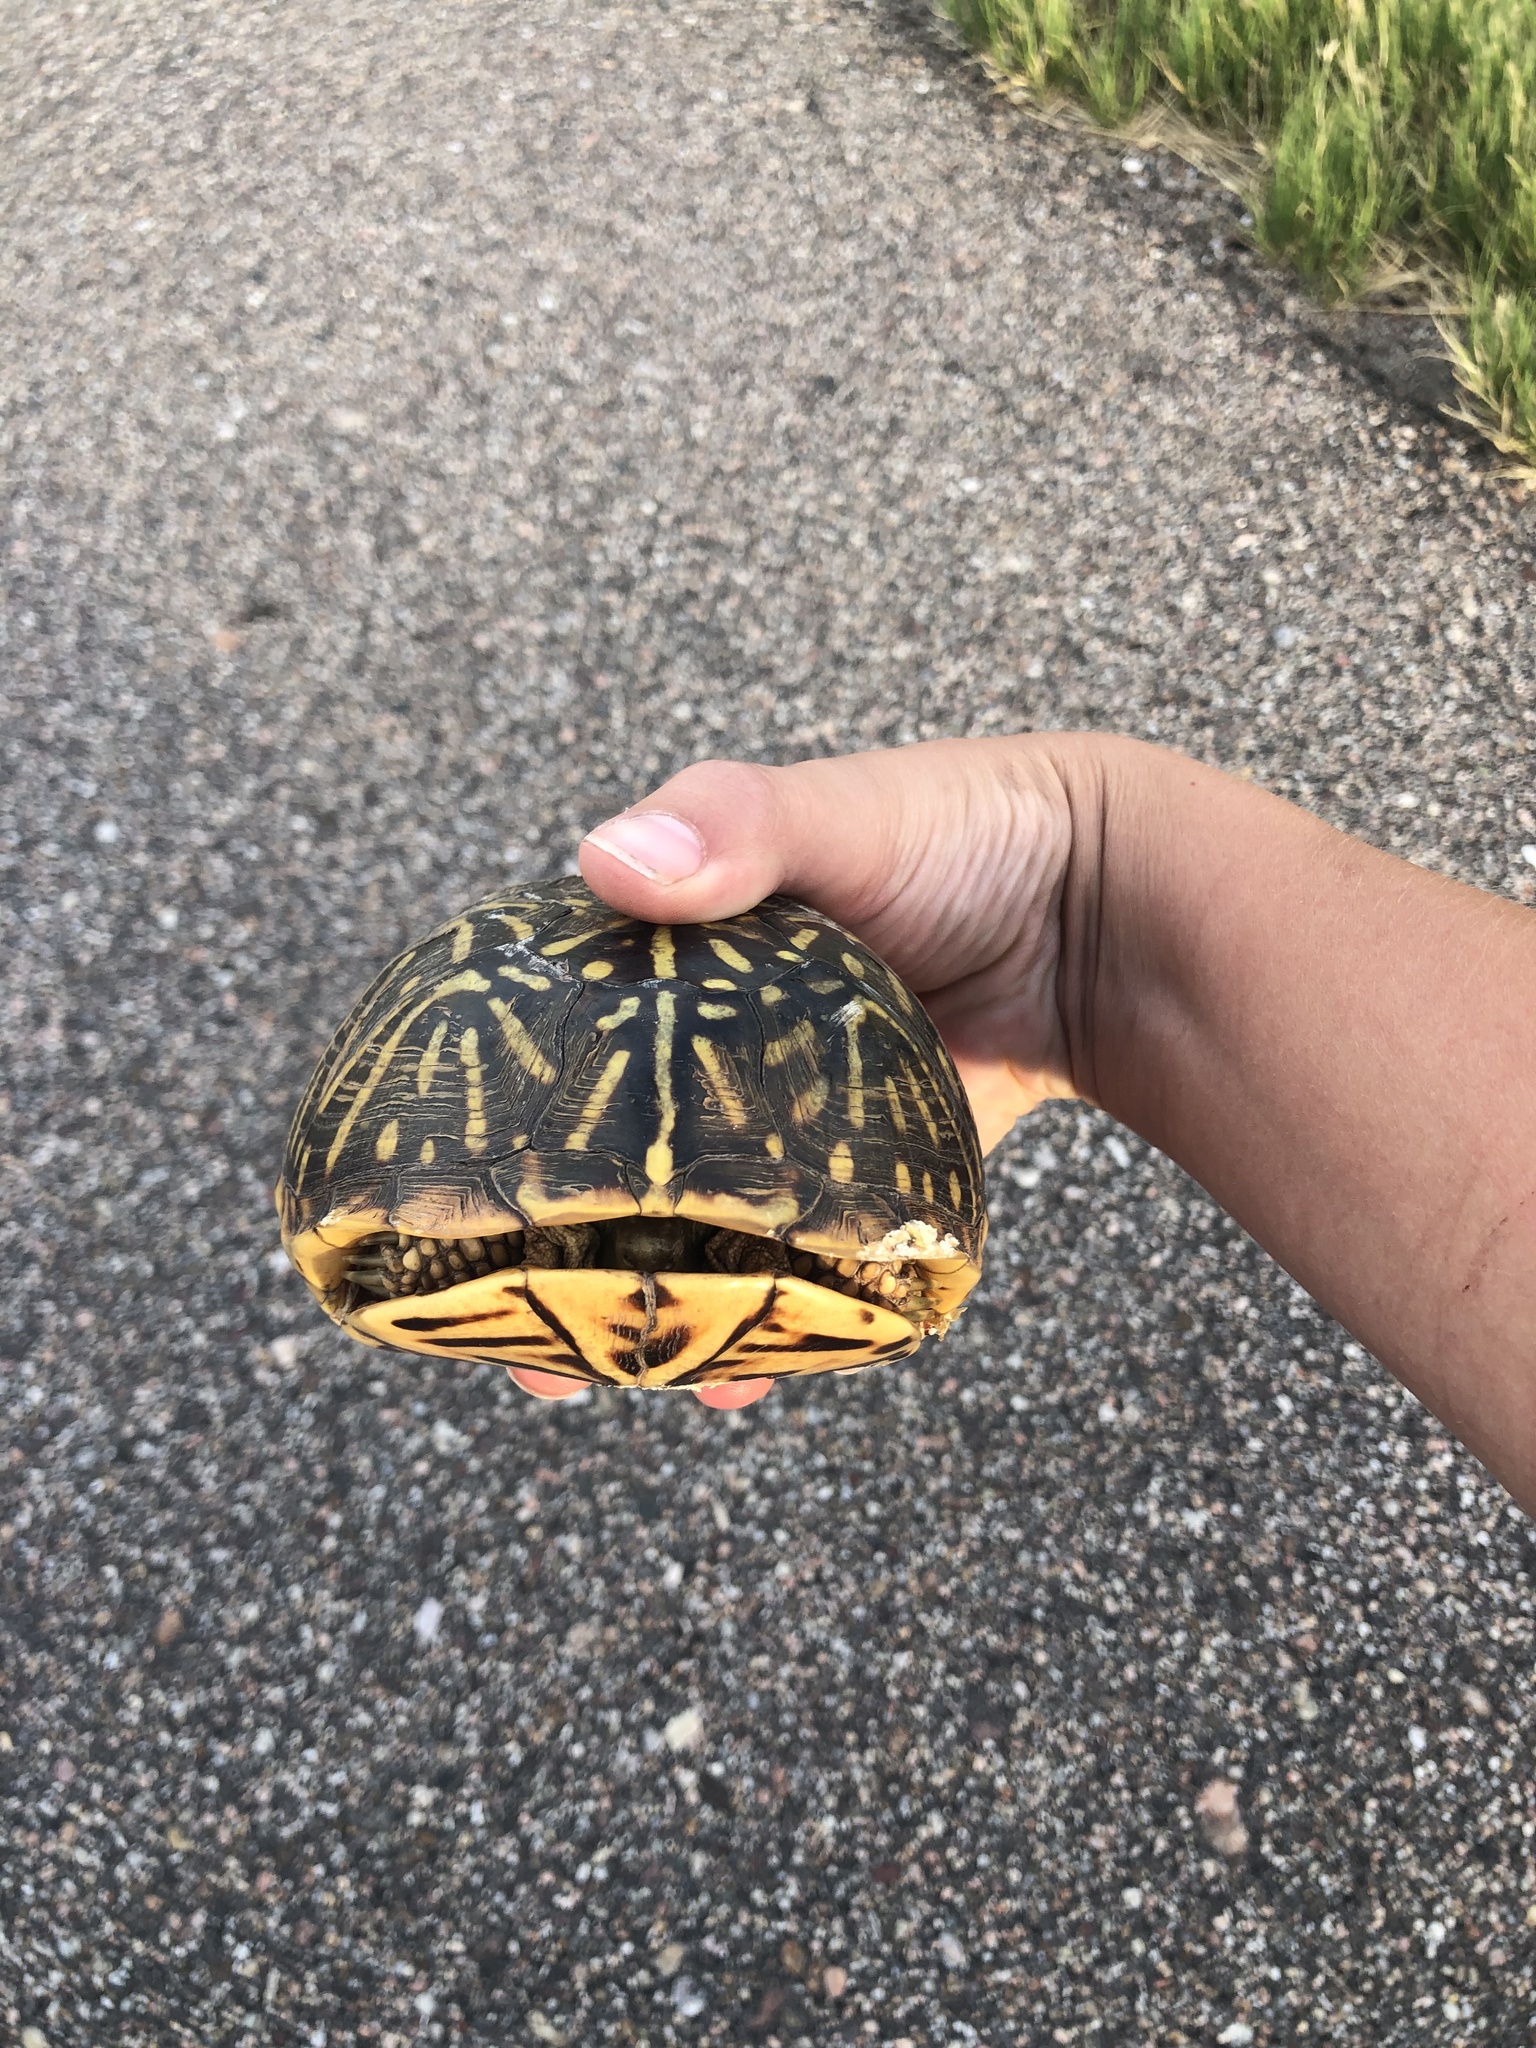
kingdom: Animalia
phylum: Chordata
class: Testudines
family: Emydidae
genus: Terrapene
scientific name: Terrapene ornata
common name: Western box turtle
